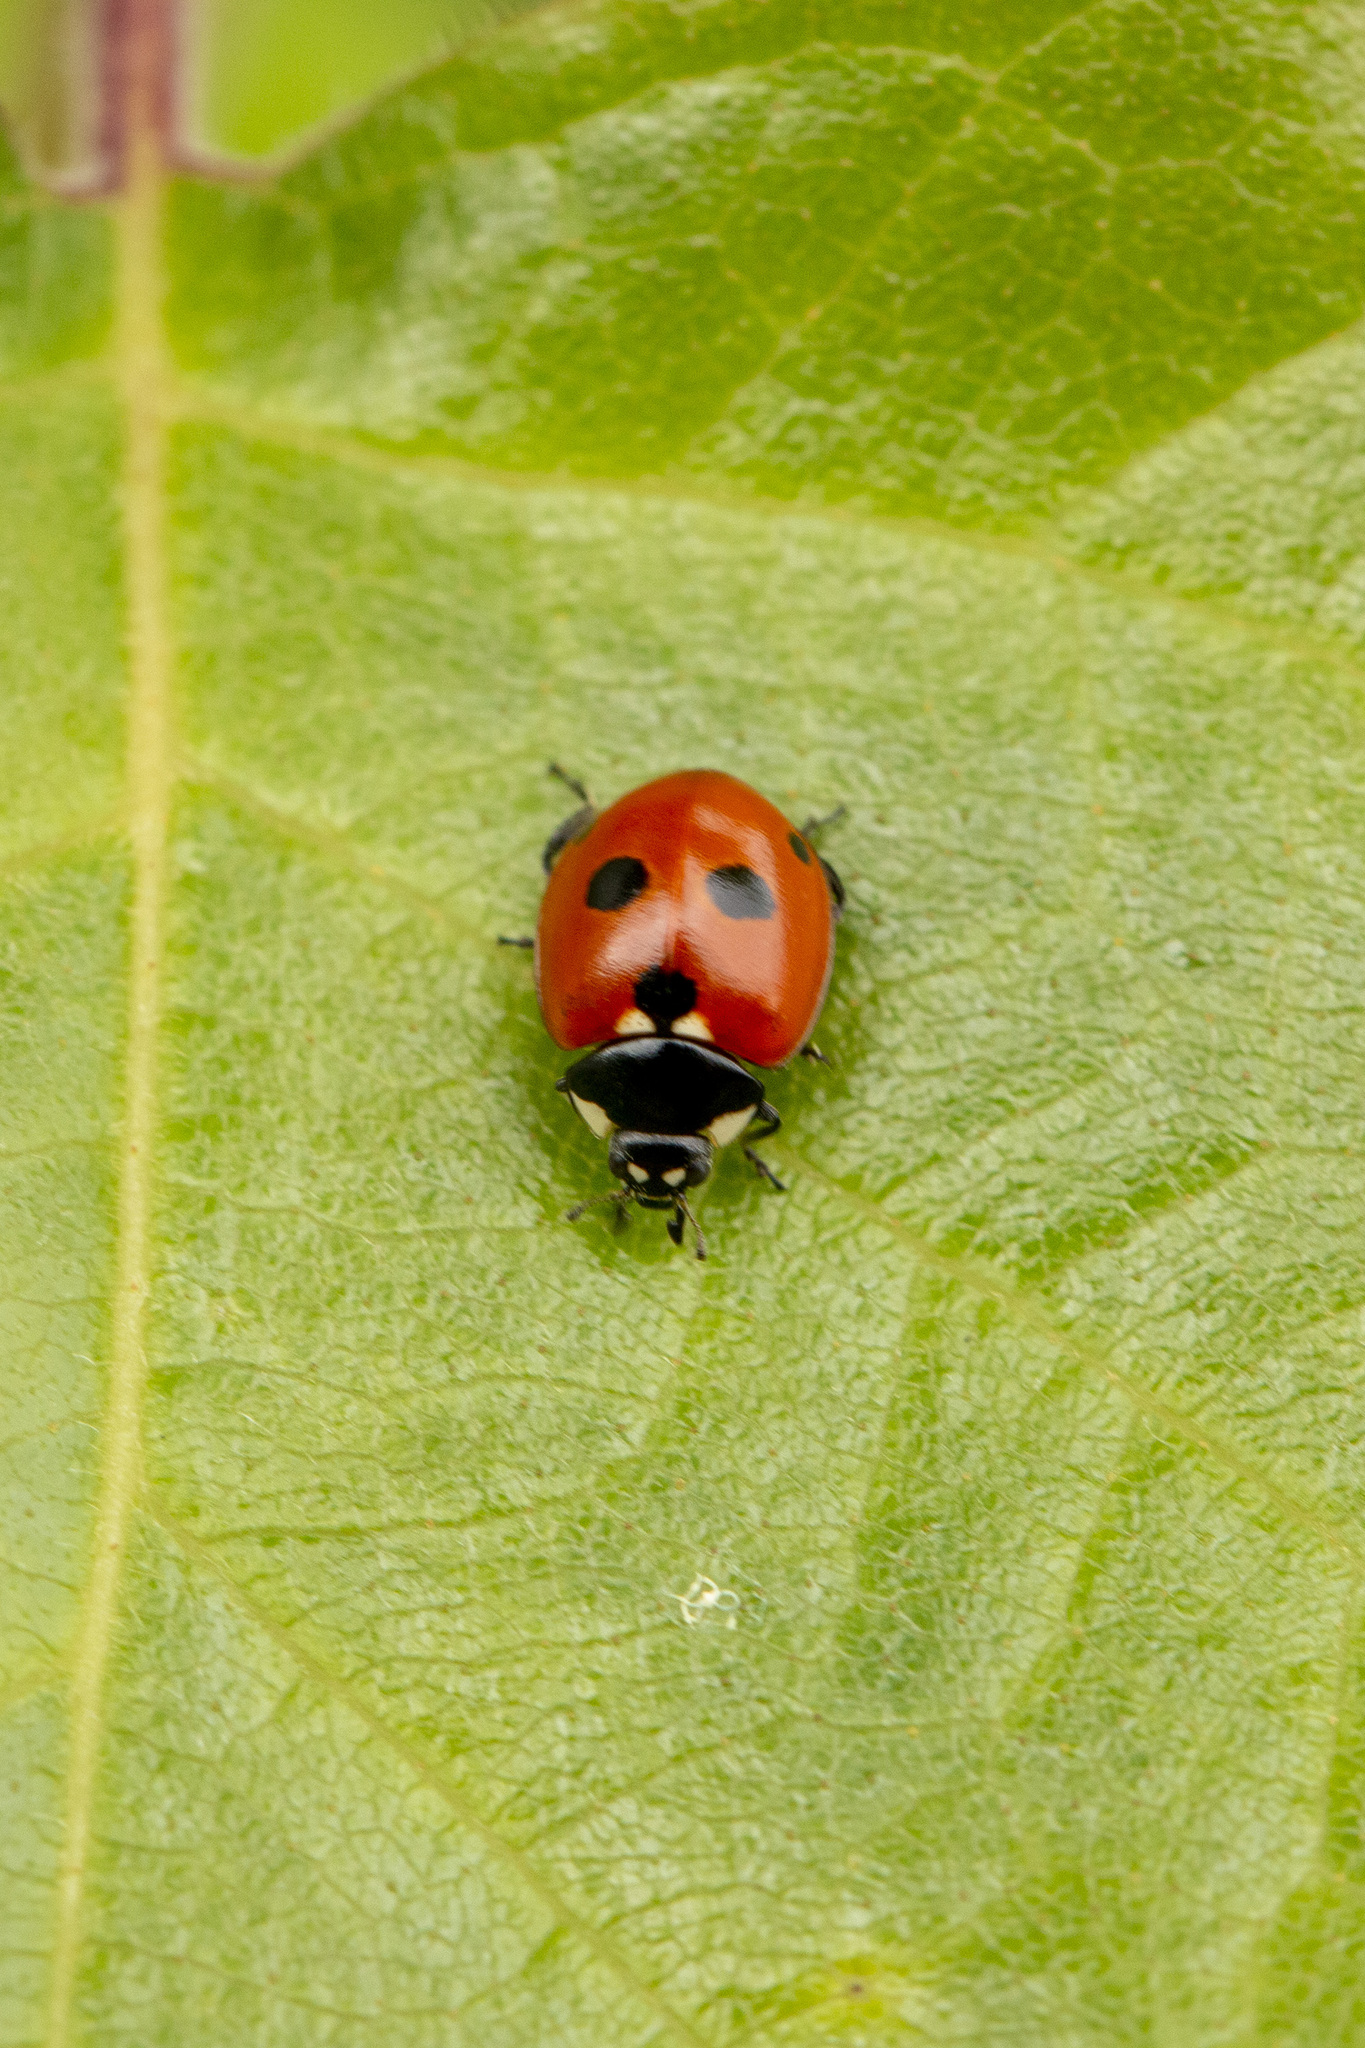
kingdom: Animalia
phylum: Arthropoda
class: Insecta
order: Coleoptera
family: Coccinellidae
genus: Coccinella
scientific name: Coccinella quinquepunctata
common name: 5-spot ladybird
